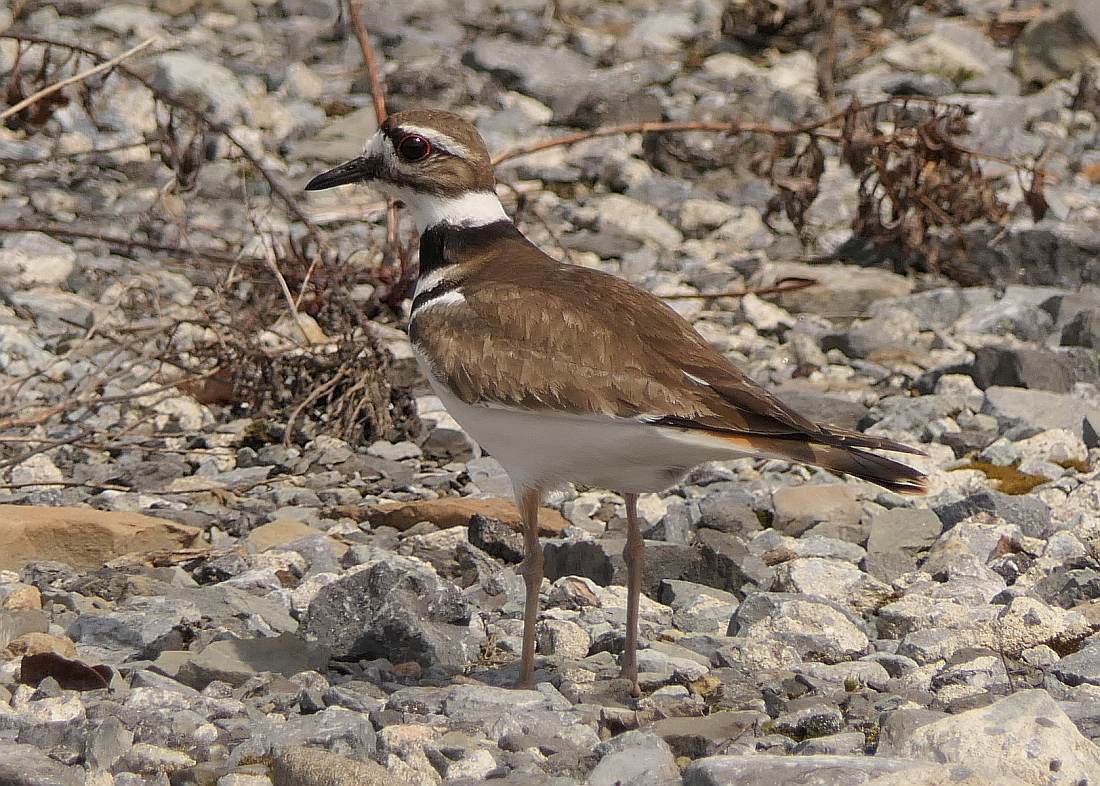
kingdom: Animalia
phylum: Chordata
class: Aves
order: Charadriiformes
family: Charadriidae
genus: Charadrius
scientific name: Charadrius vociferus
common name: Killdeer
